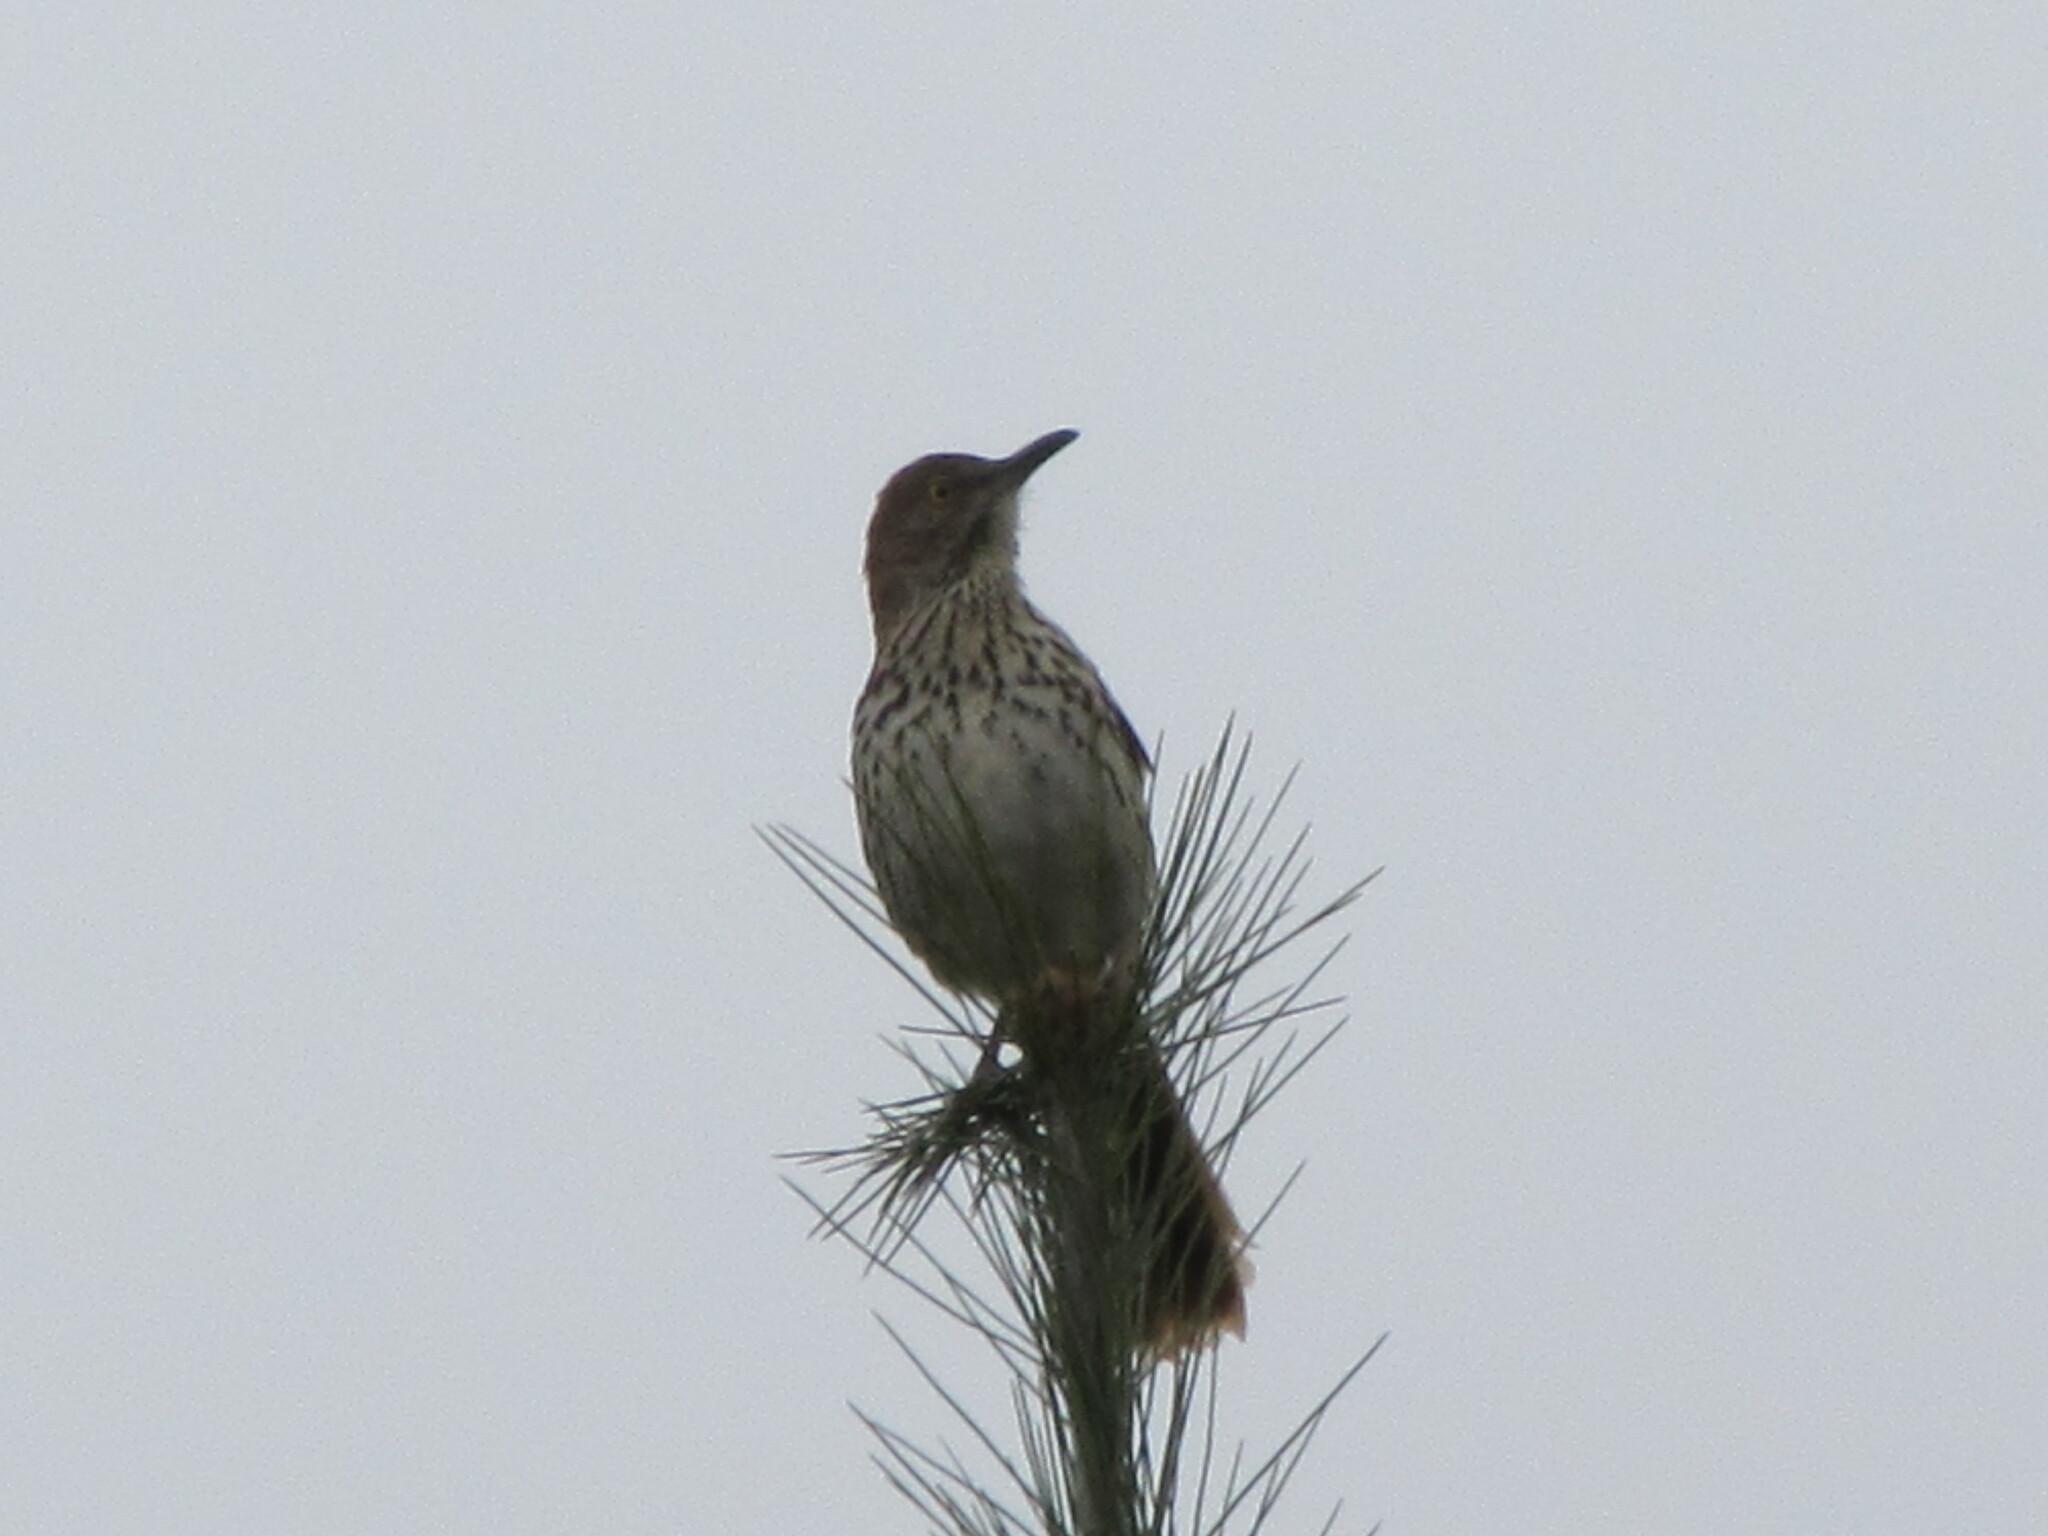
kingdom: Animalia
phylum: Chordata
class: Aves
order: Passeriformes
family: Mimidae
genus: Toxostoma
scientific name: Toxostoma rufum
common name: Brown thrasher
